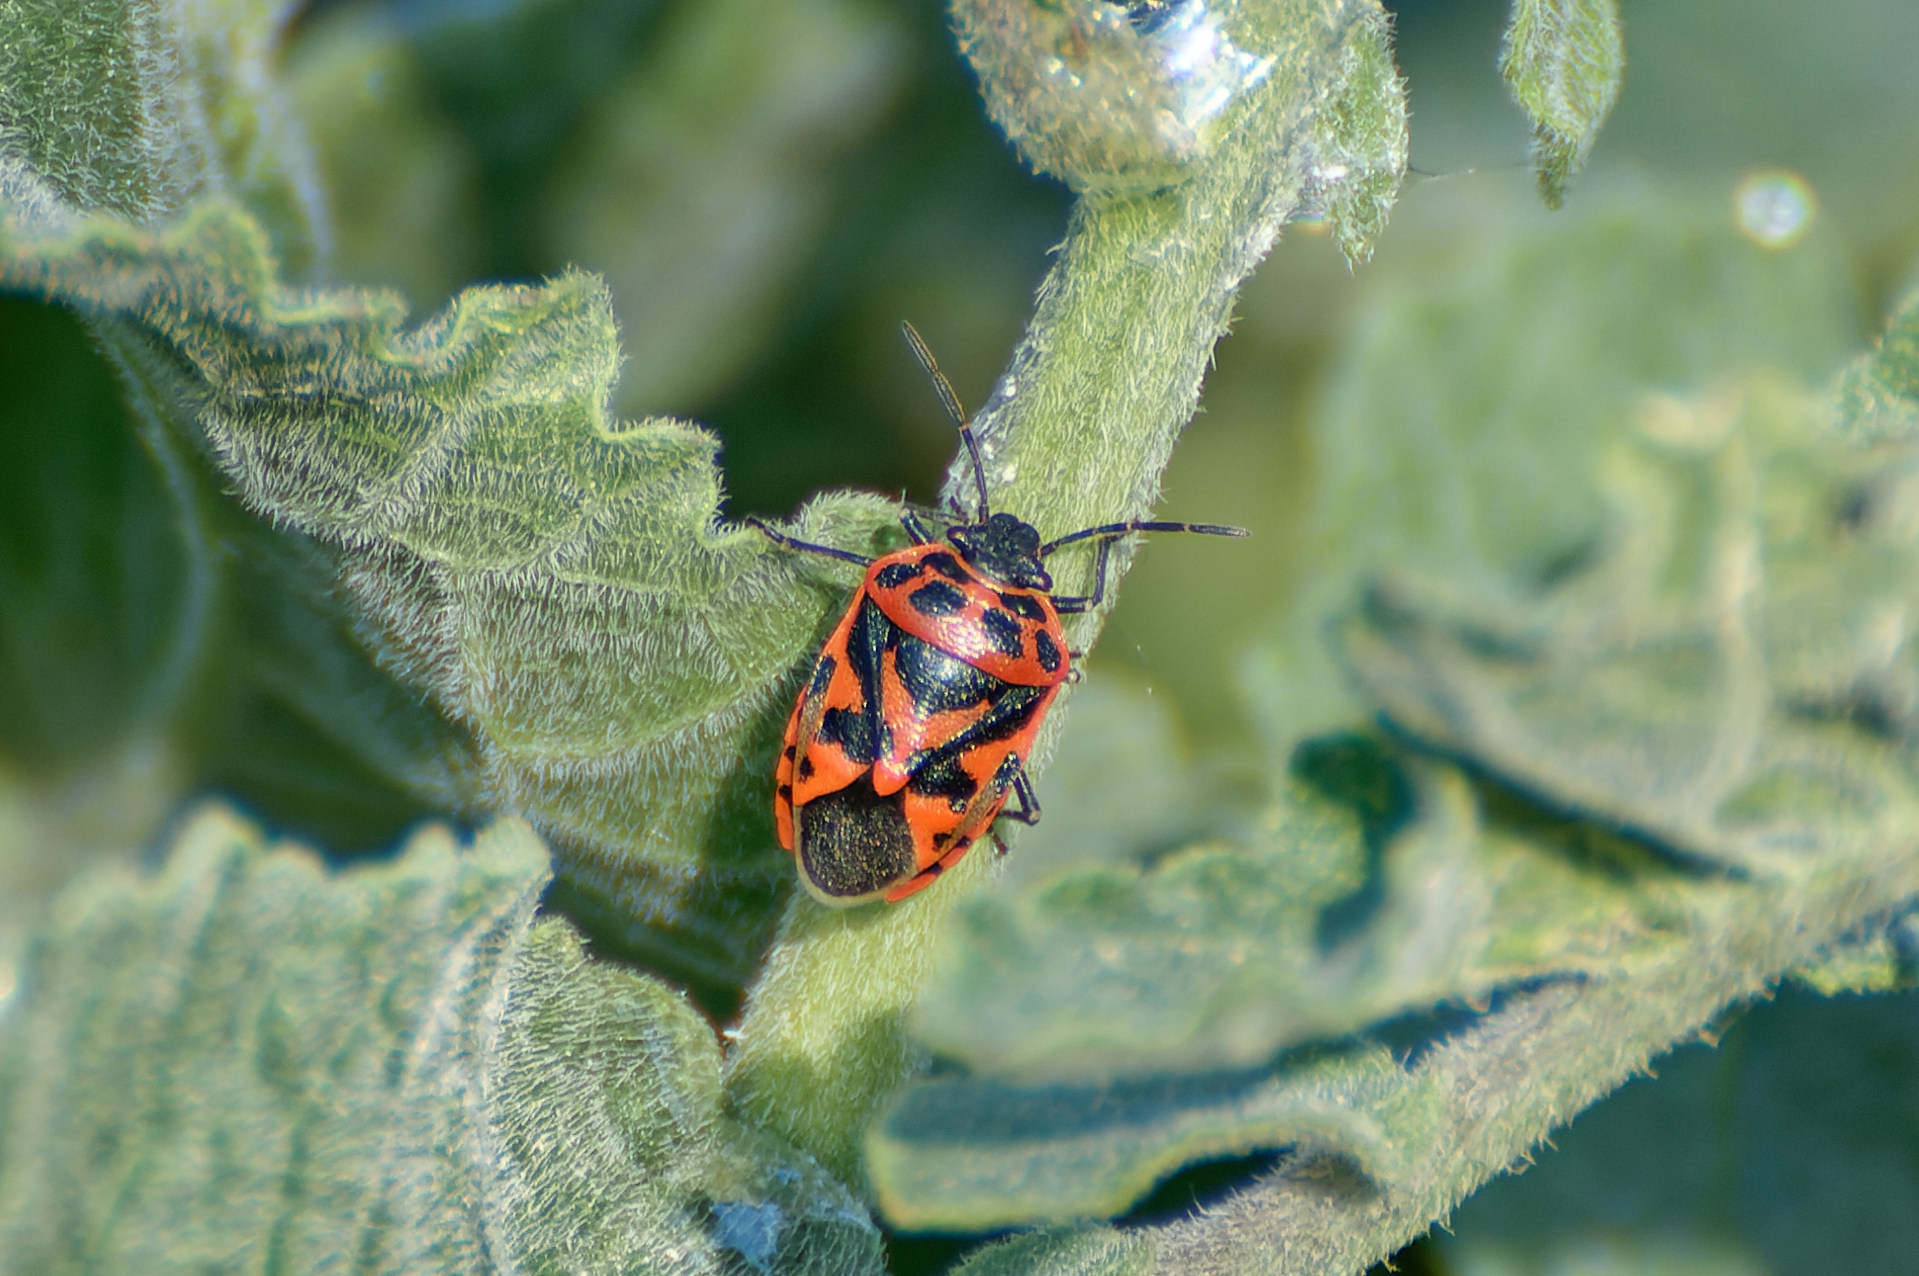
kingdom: Animalia
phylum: Arthropoda
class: Insecta
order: Hemiptera
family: Pentatomidae
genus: Eurydema
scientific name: Eurydema ornata
